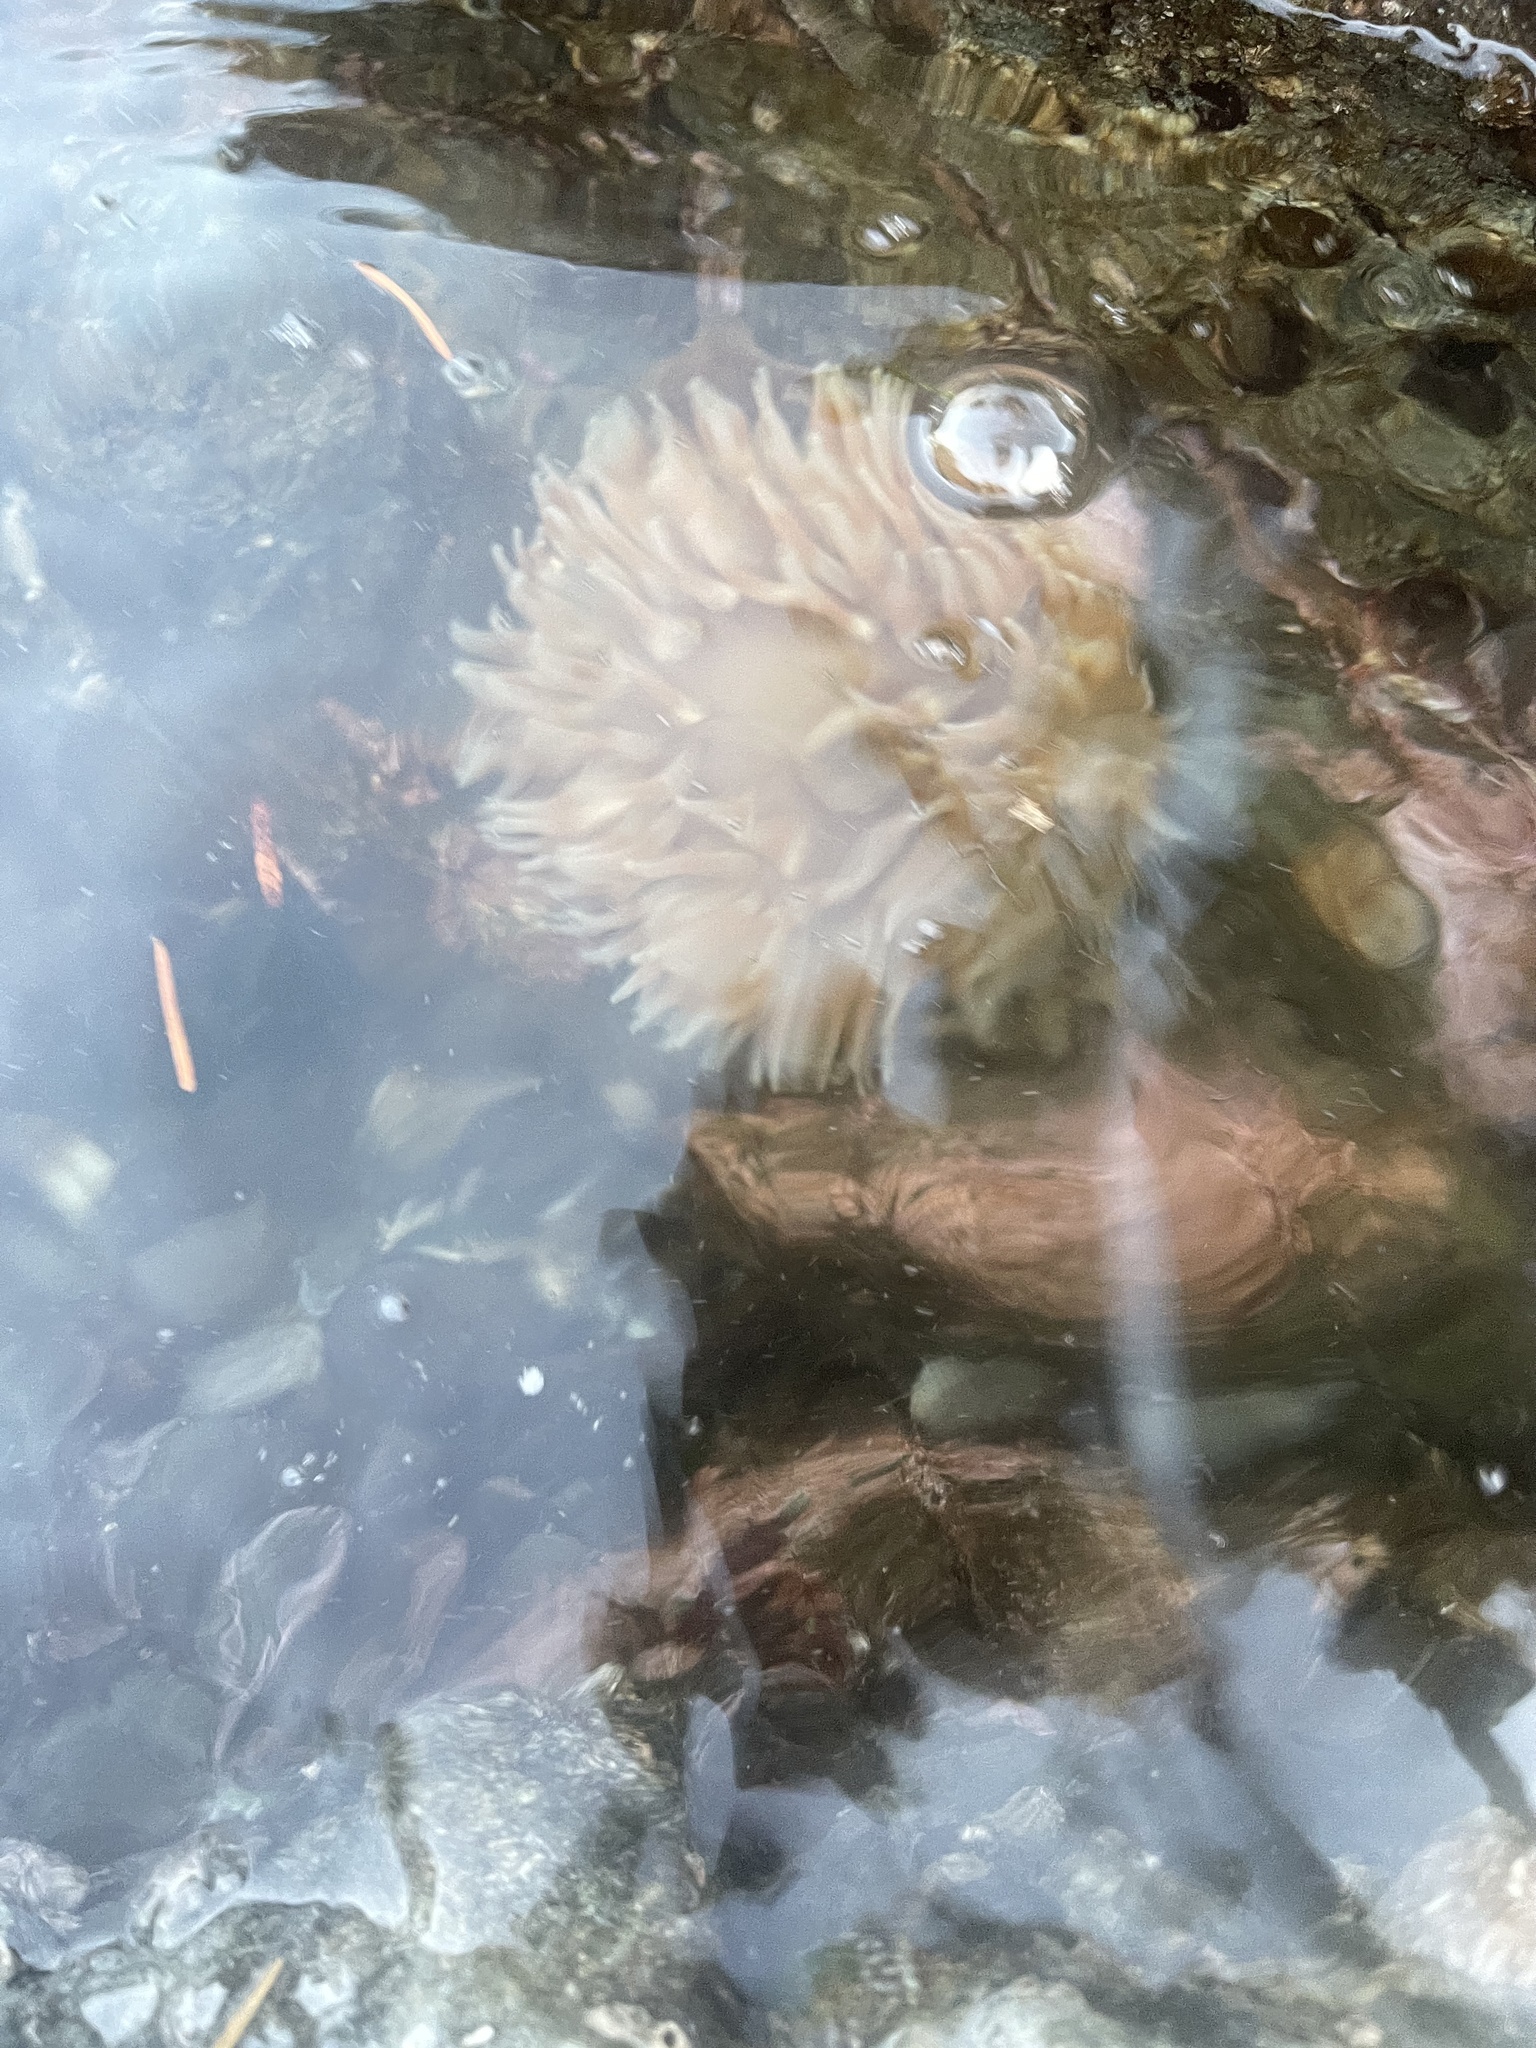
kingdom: Animalia
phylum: Cnidaria
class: Anthozoa
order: Actiniaria
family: Actiniidae
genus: Urticina
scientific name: Urticina grebelnyi
